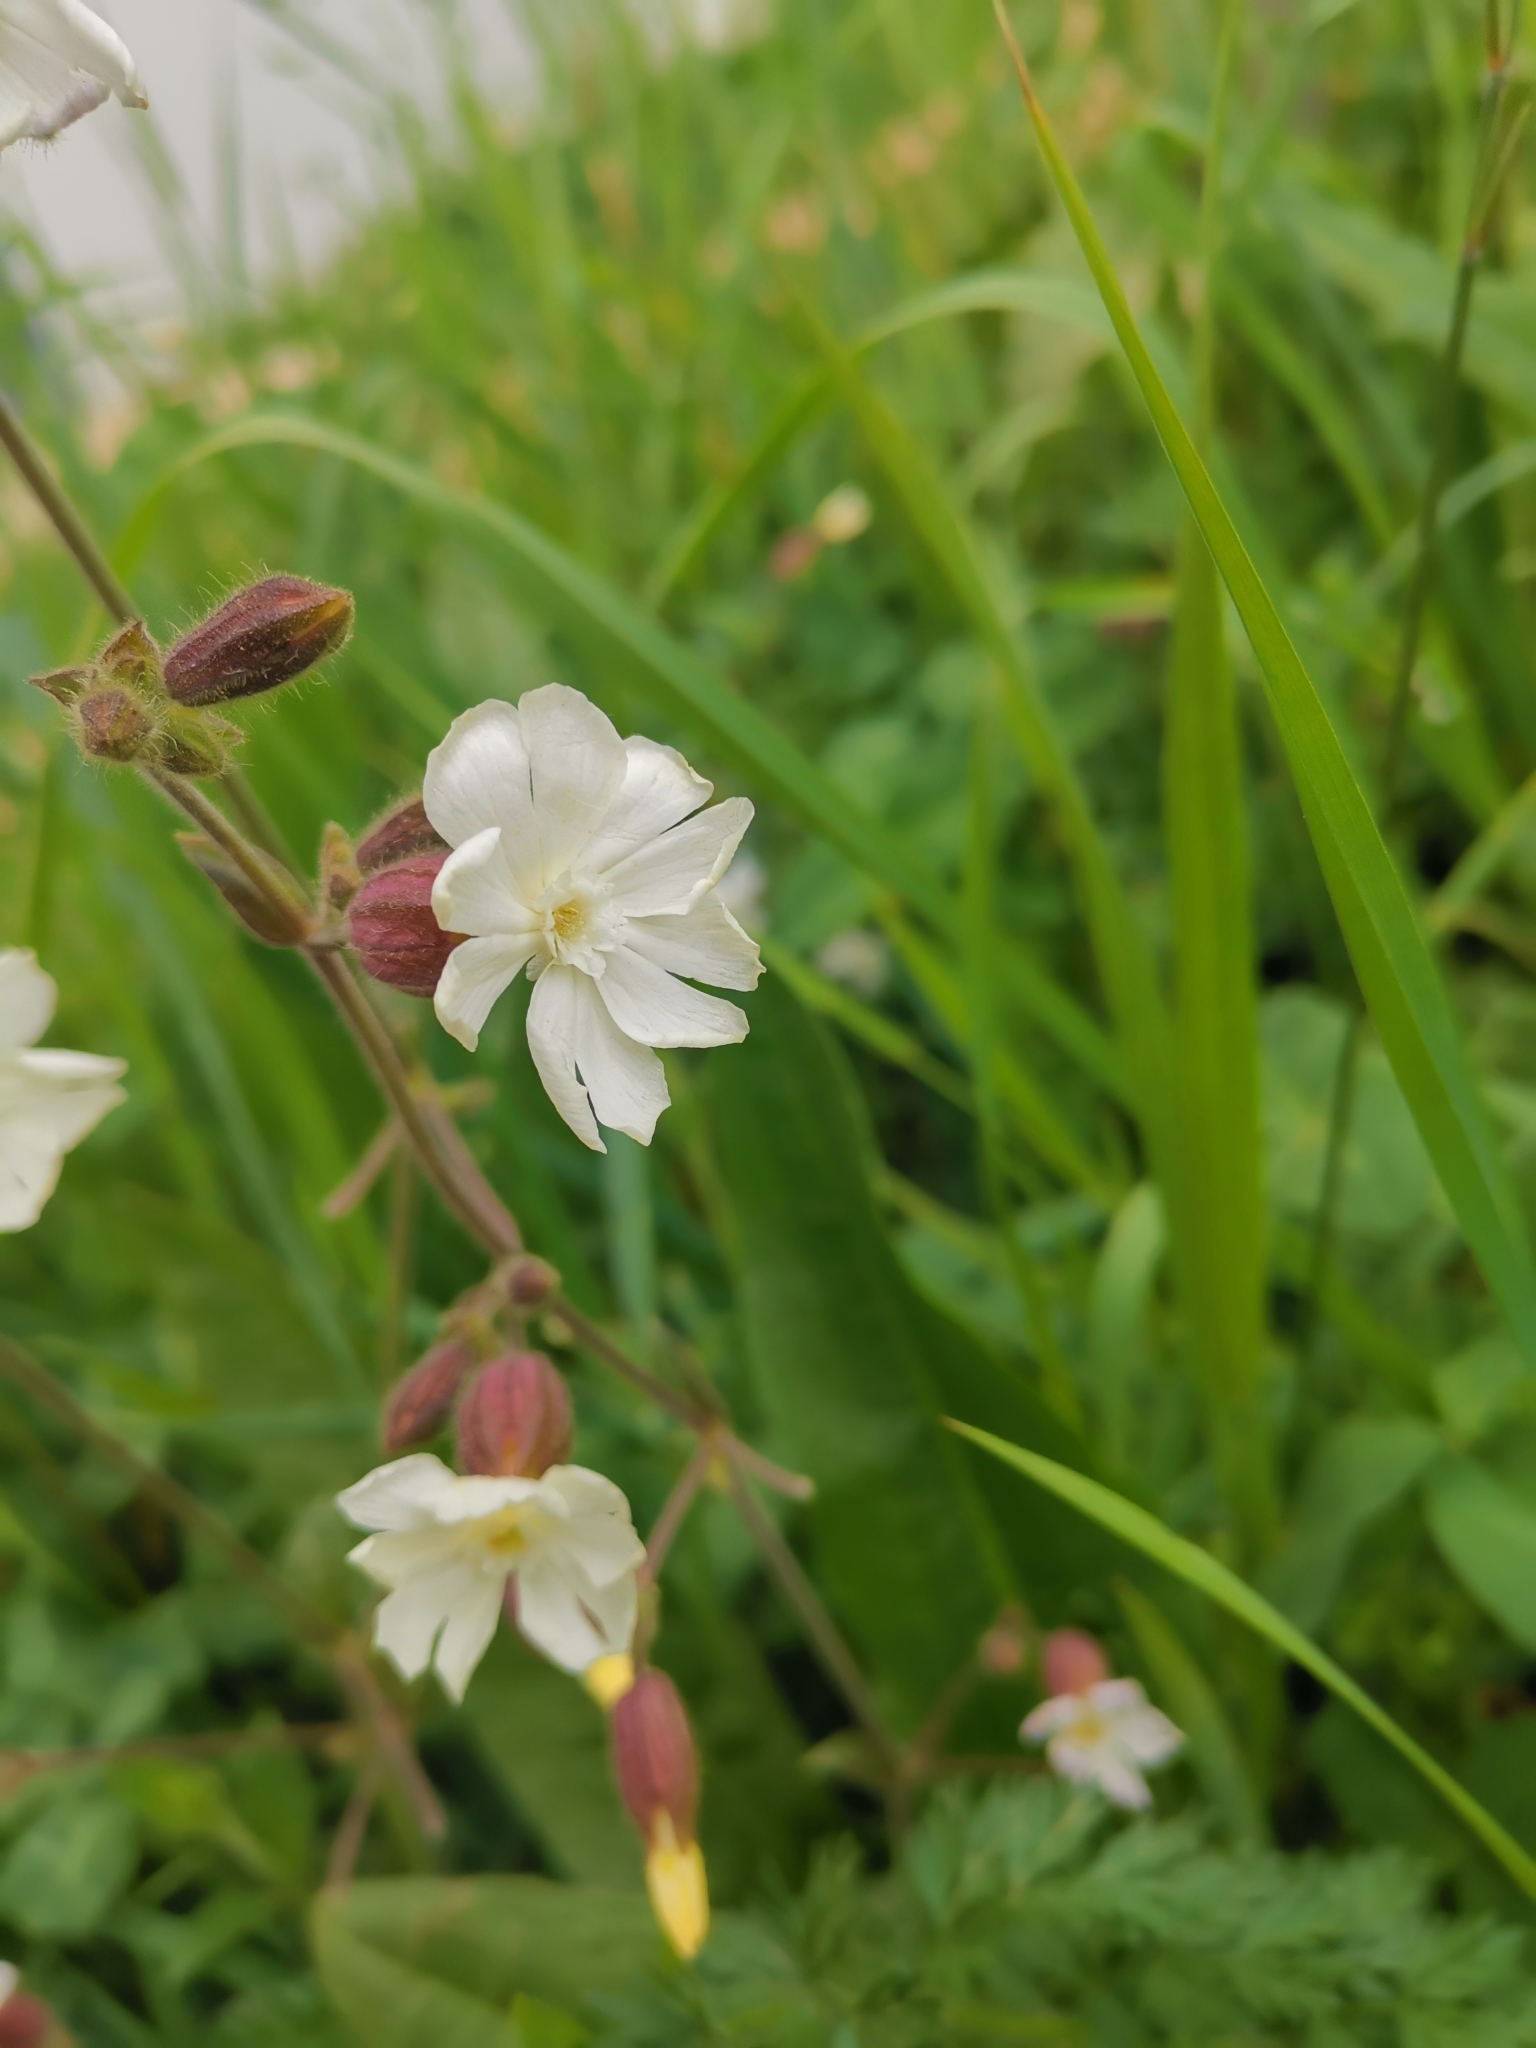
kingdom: Plantae
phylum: Tracheophyta
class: Magnoliopsida
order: Caryophyllales
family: Caryophyllaceae
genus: Silene
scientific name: Silene latifolia
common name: White campion
